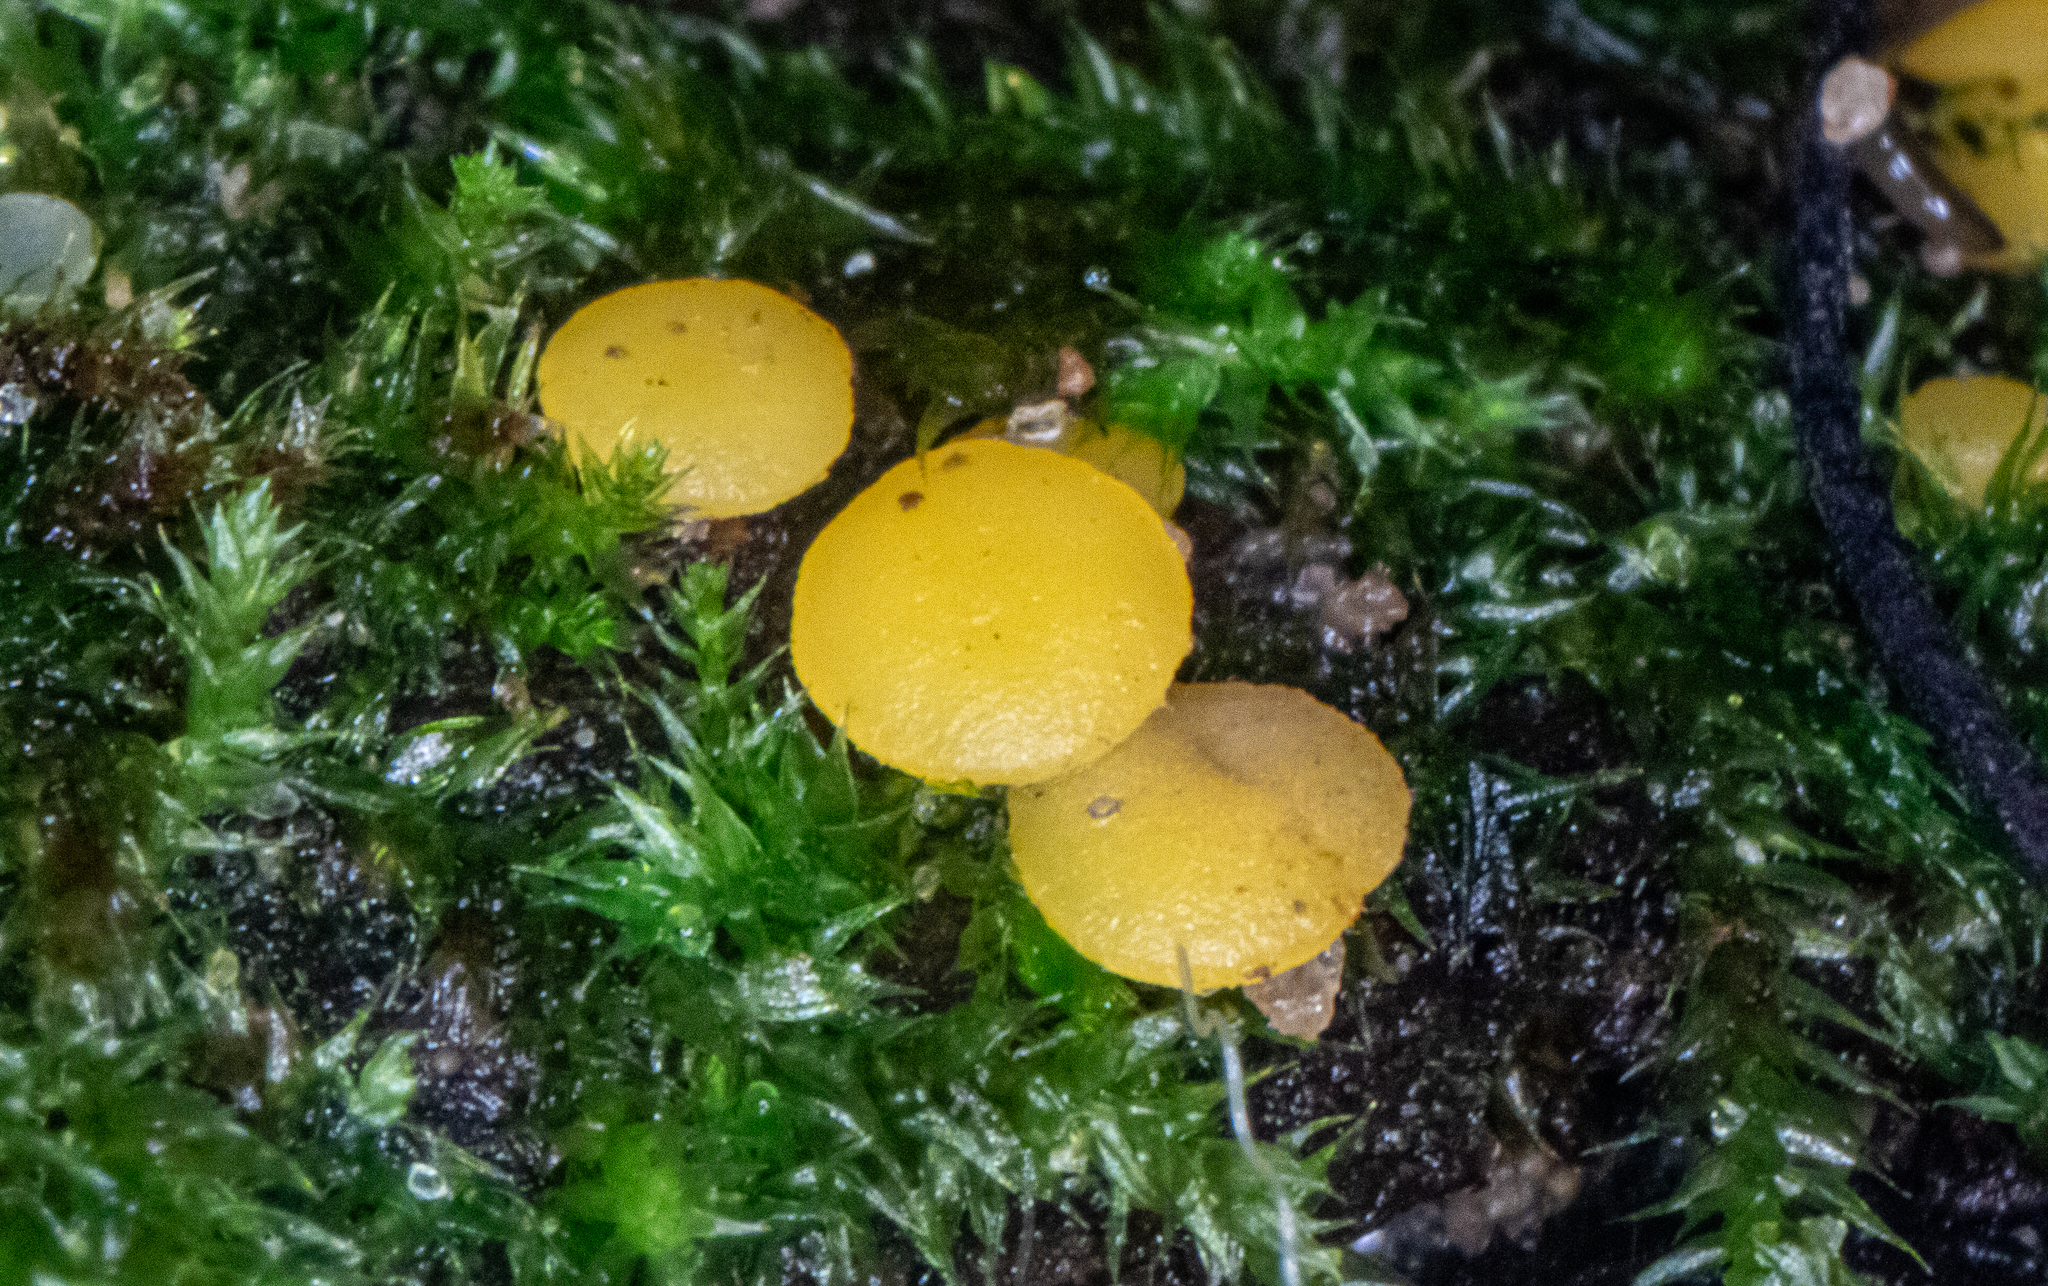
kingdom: Fungi
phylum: Ascomycota
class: Leotiomycetes
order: Helotiales
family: Pezizellaceae
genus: Calycina
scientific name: Calycina citrina
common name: Yellow fairy cups
